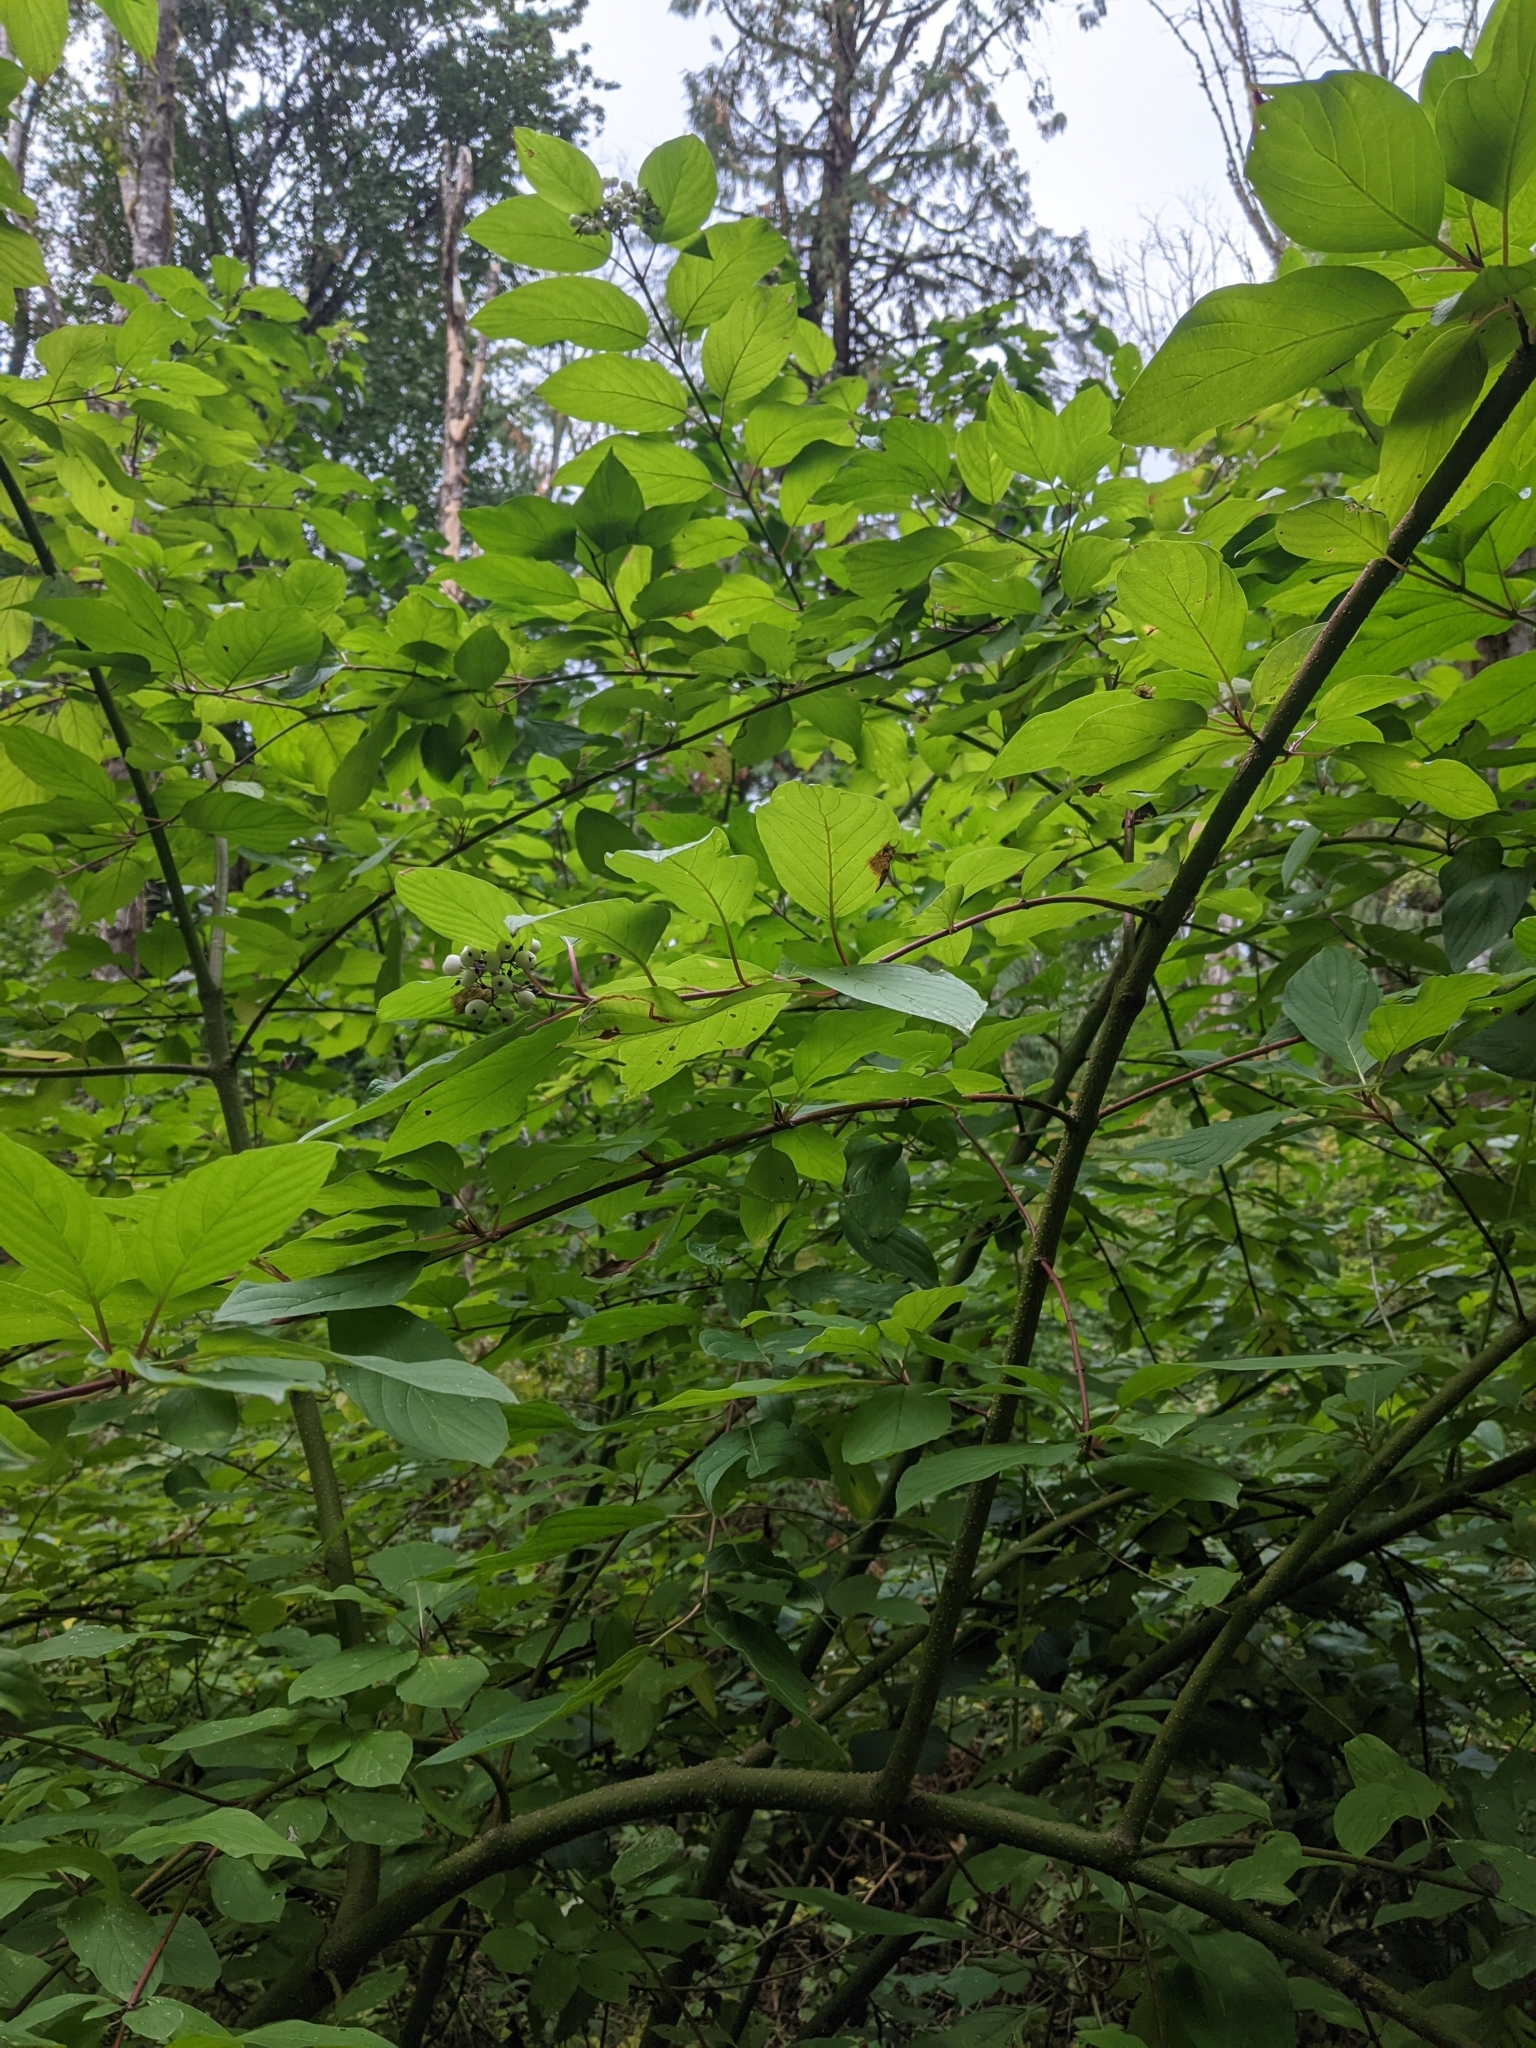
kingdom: Plantae
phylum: Tracheophyta
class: Magnoliopsida
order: Cornales
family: Cornaceae
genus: Cornus
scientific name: Cornus sericea
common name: Red-osier dogwood
